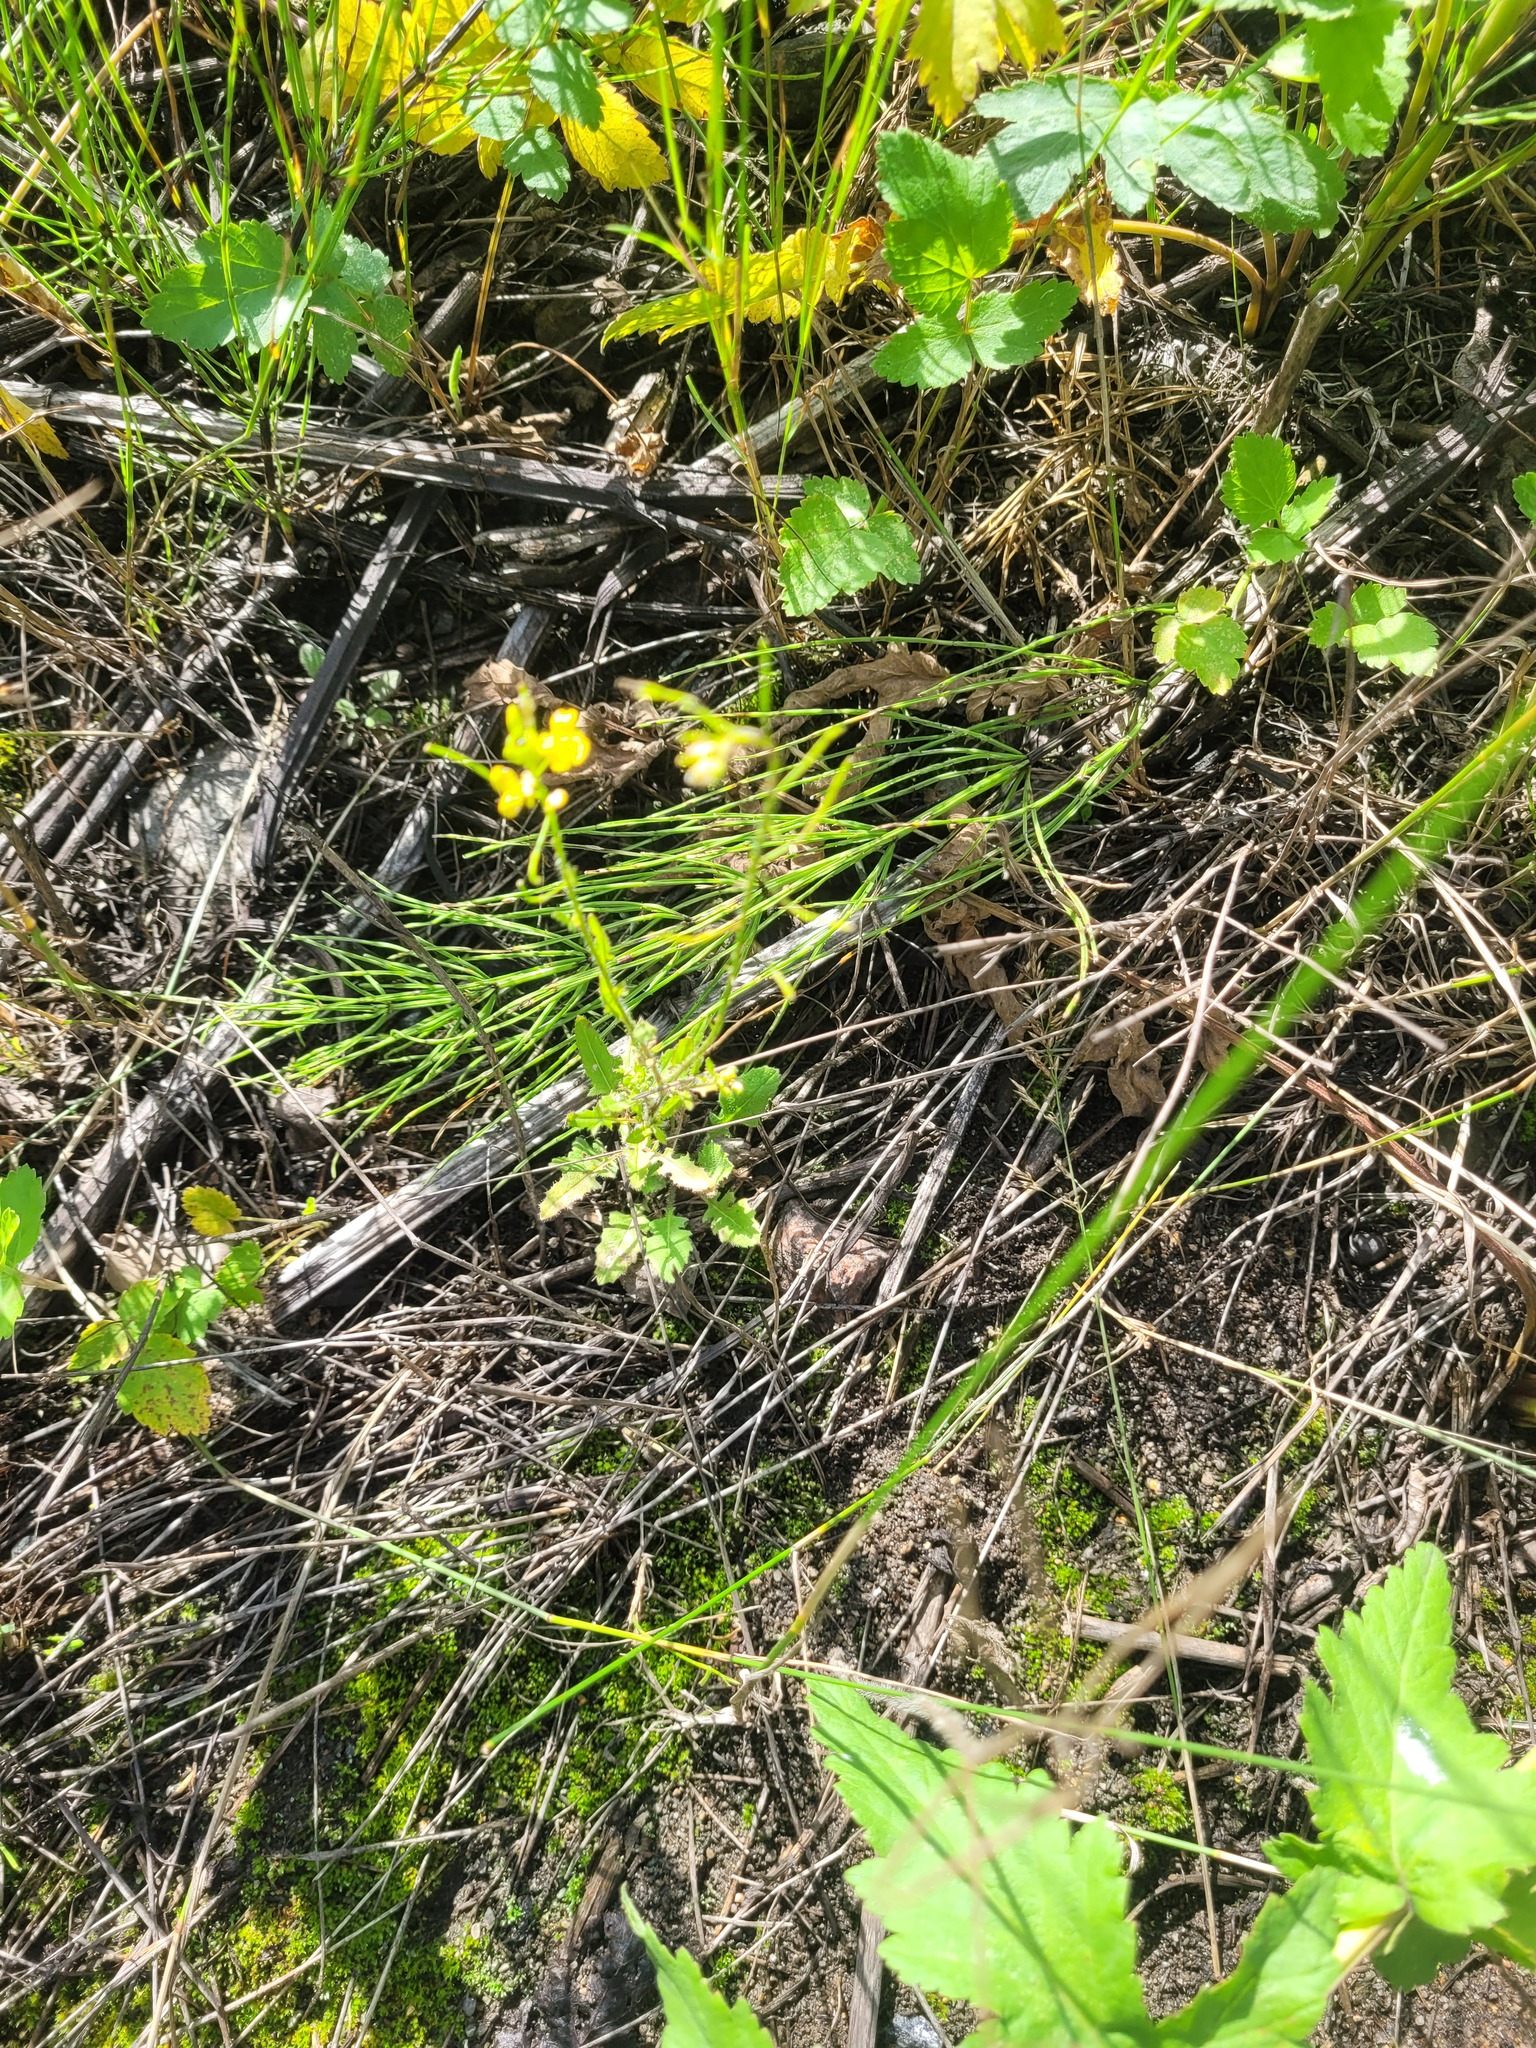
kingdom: Plantae
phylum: Tracheophyta
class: Magnoliopsida
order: Brassicales
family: Brassicaceae
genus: Sisymbrium
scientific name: Sisymbrium loeselii
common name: False london-rocket
